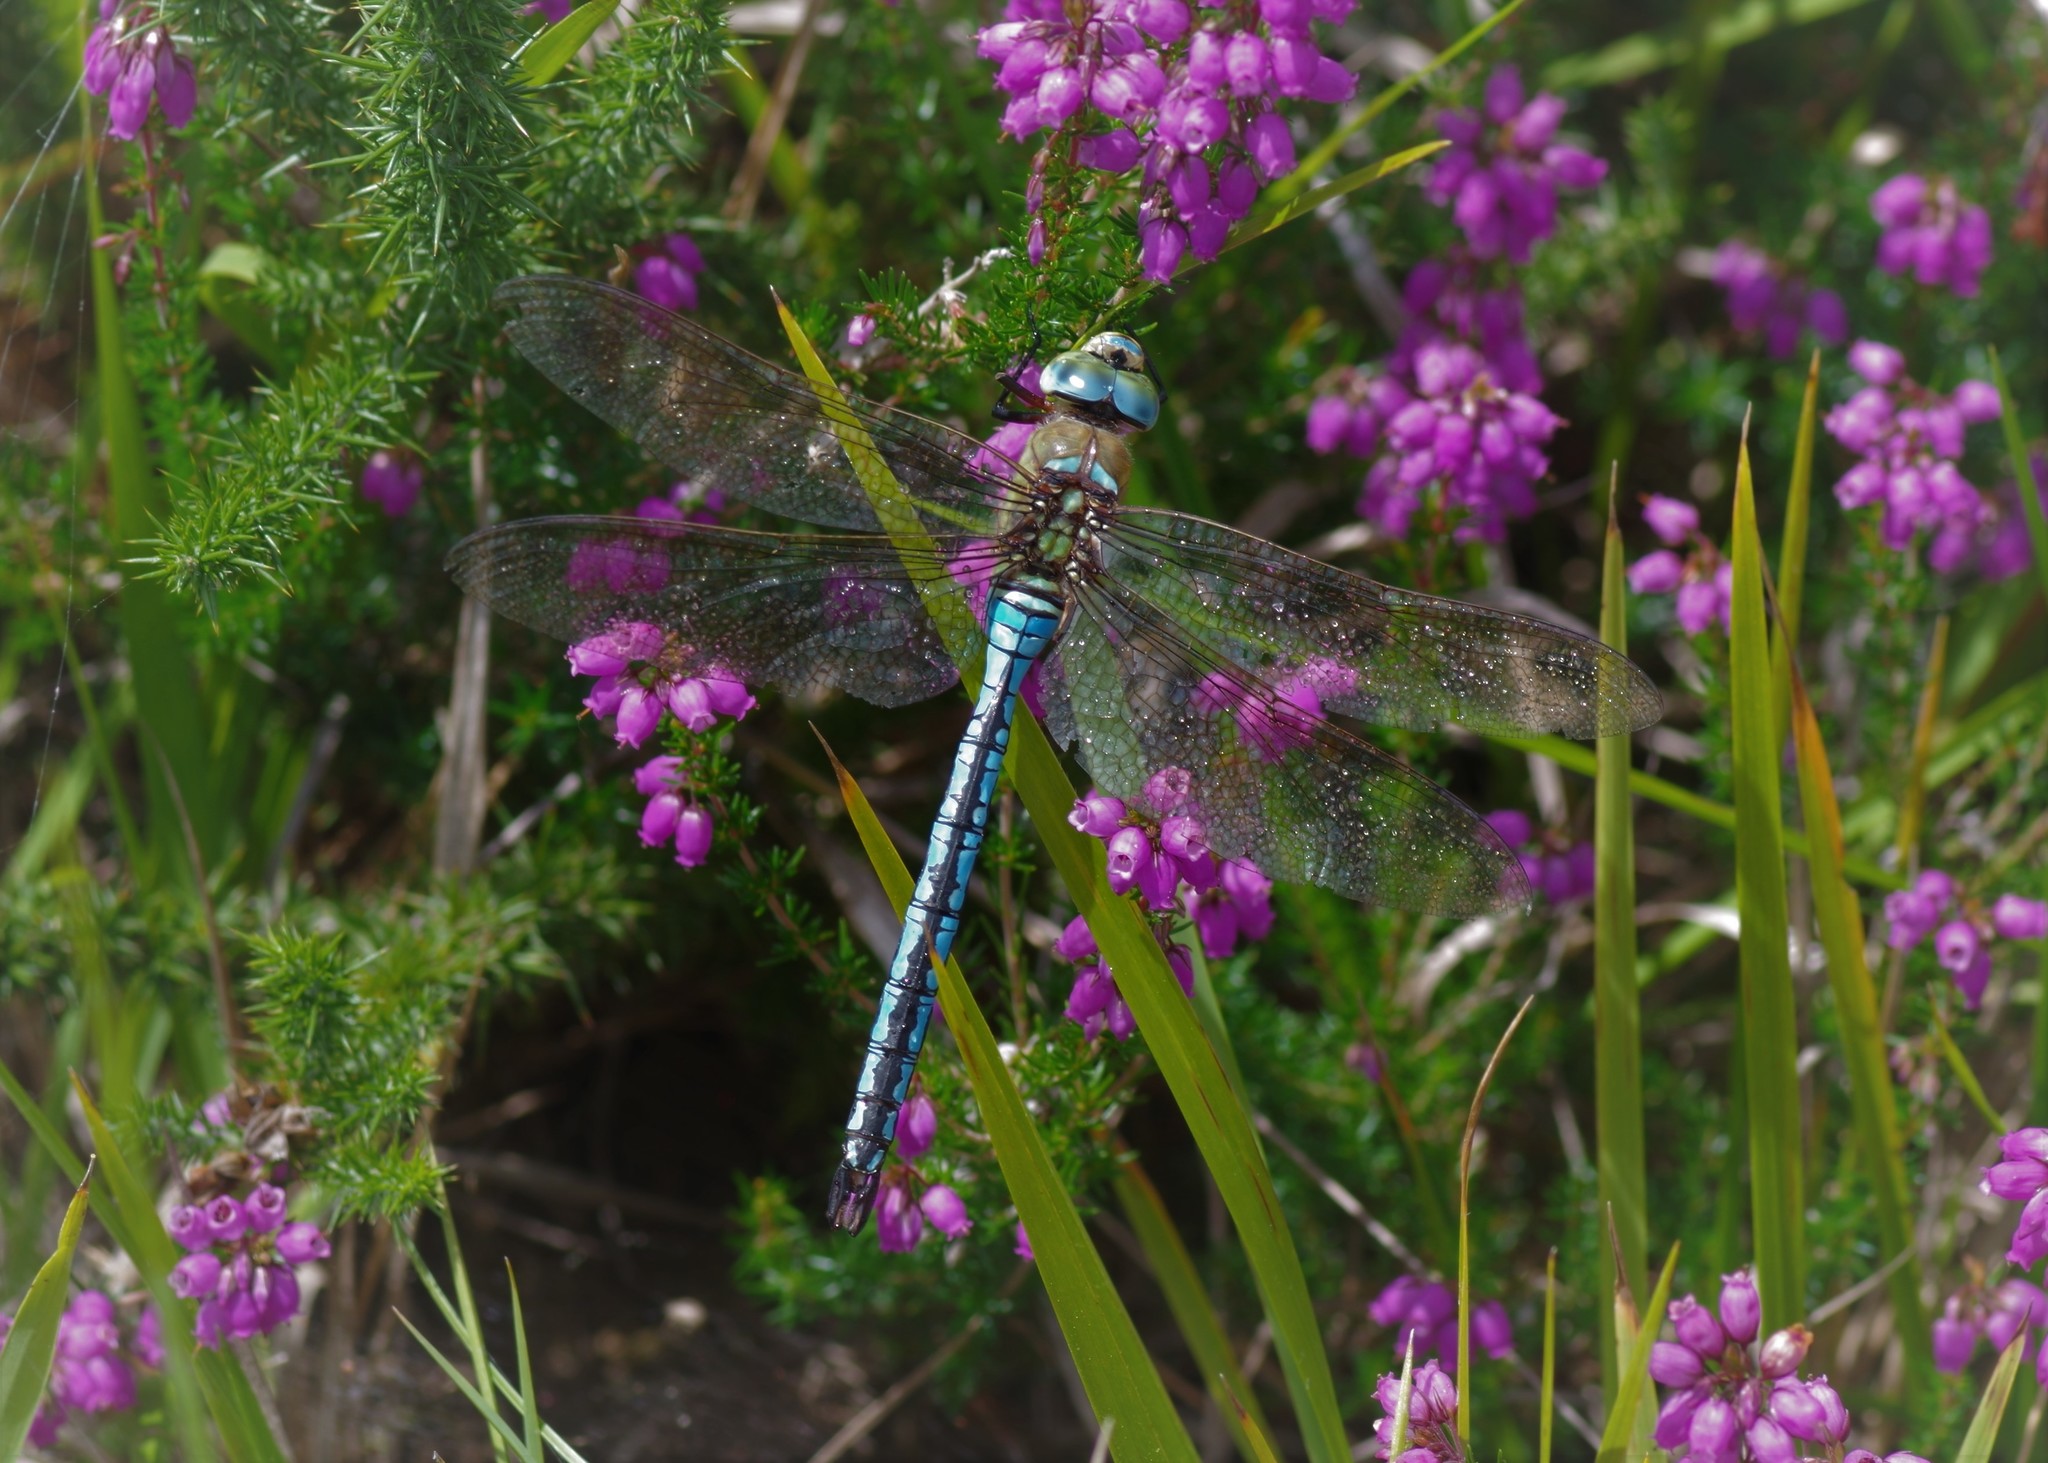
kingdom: Animalia
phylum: Arthropoda
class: Insecta
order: Odonata
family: Aeshnidae
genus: Anax
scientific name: Anax imperator
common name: Emperor dragonfly
